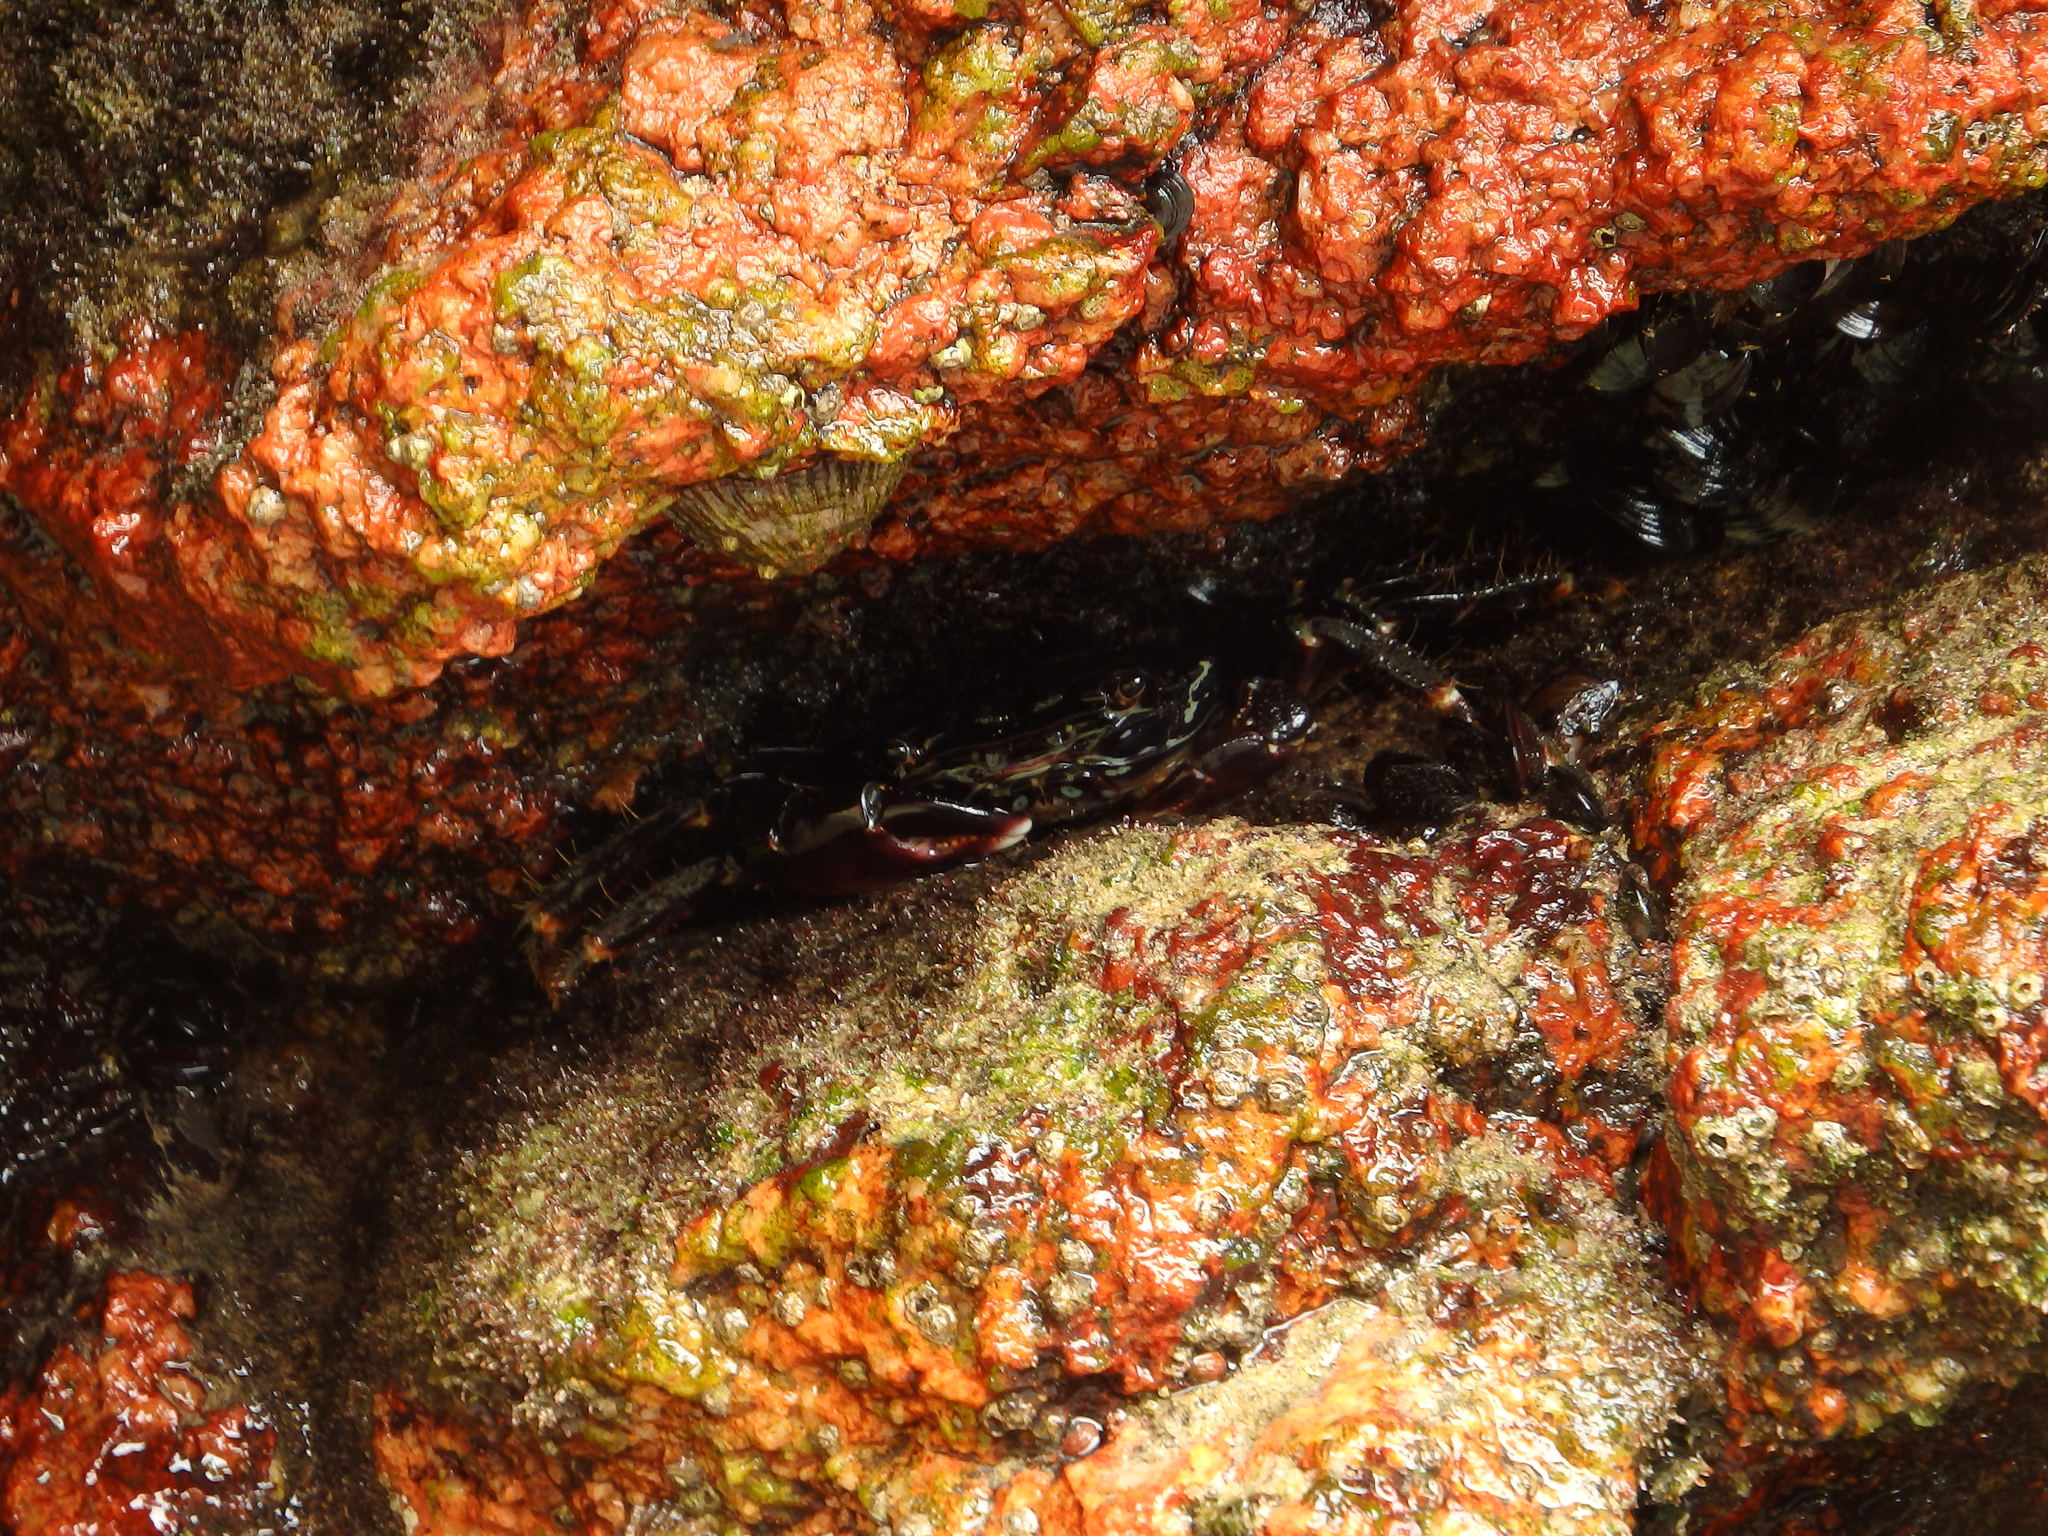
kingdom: Animalia
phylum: Arthropoda
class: Malacostraca
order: Decapoda
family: Grapsidae
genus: Pachygrapsus
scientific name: Pachygrapsus marmoratus
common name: Marbled rock crab
